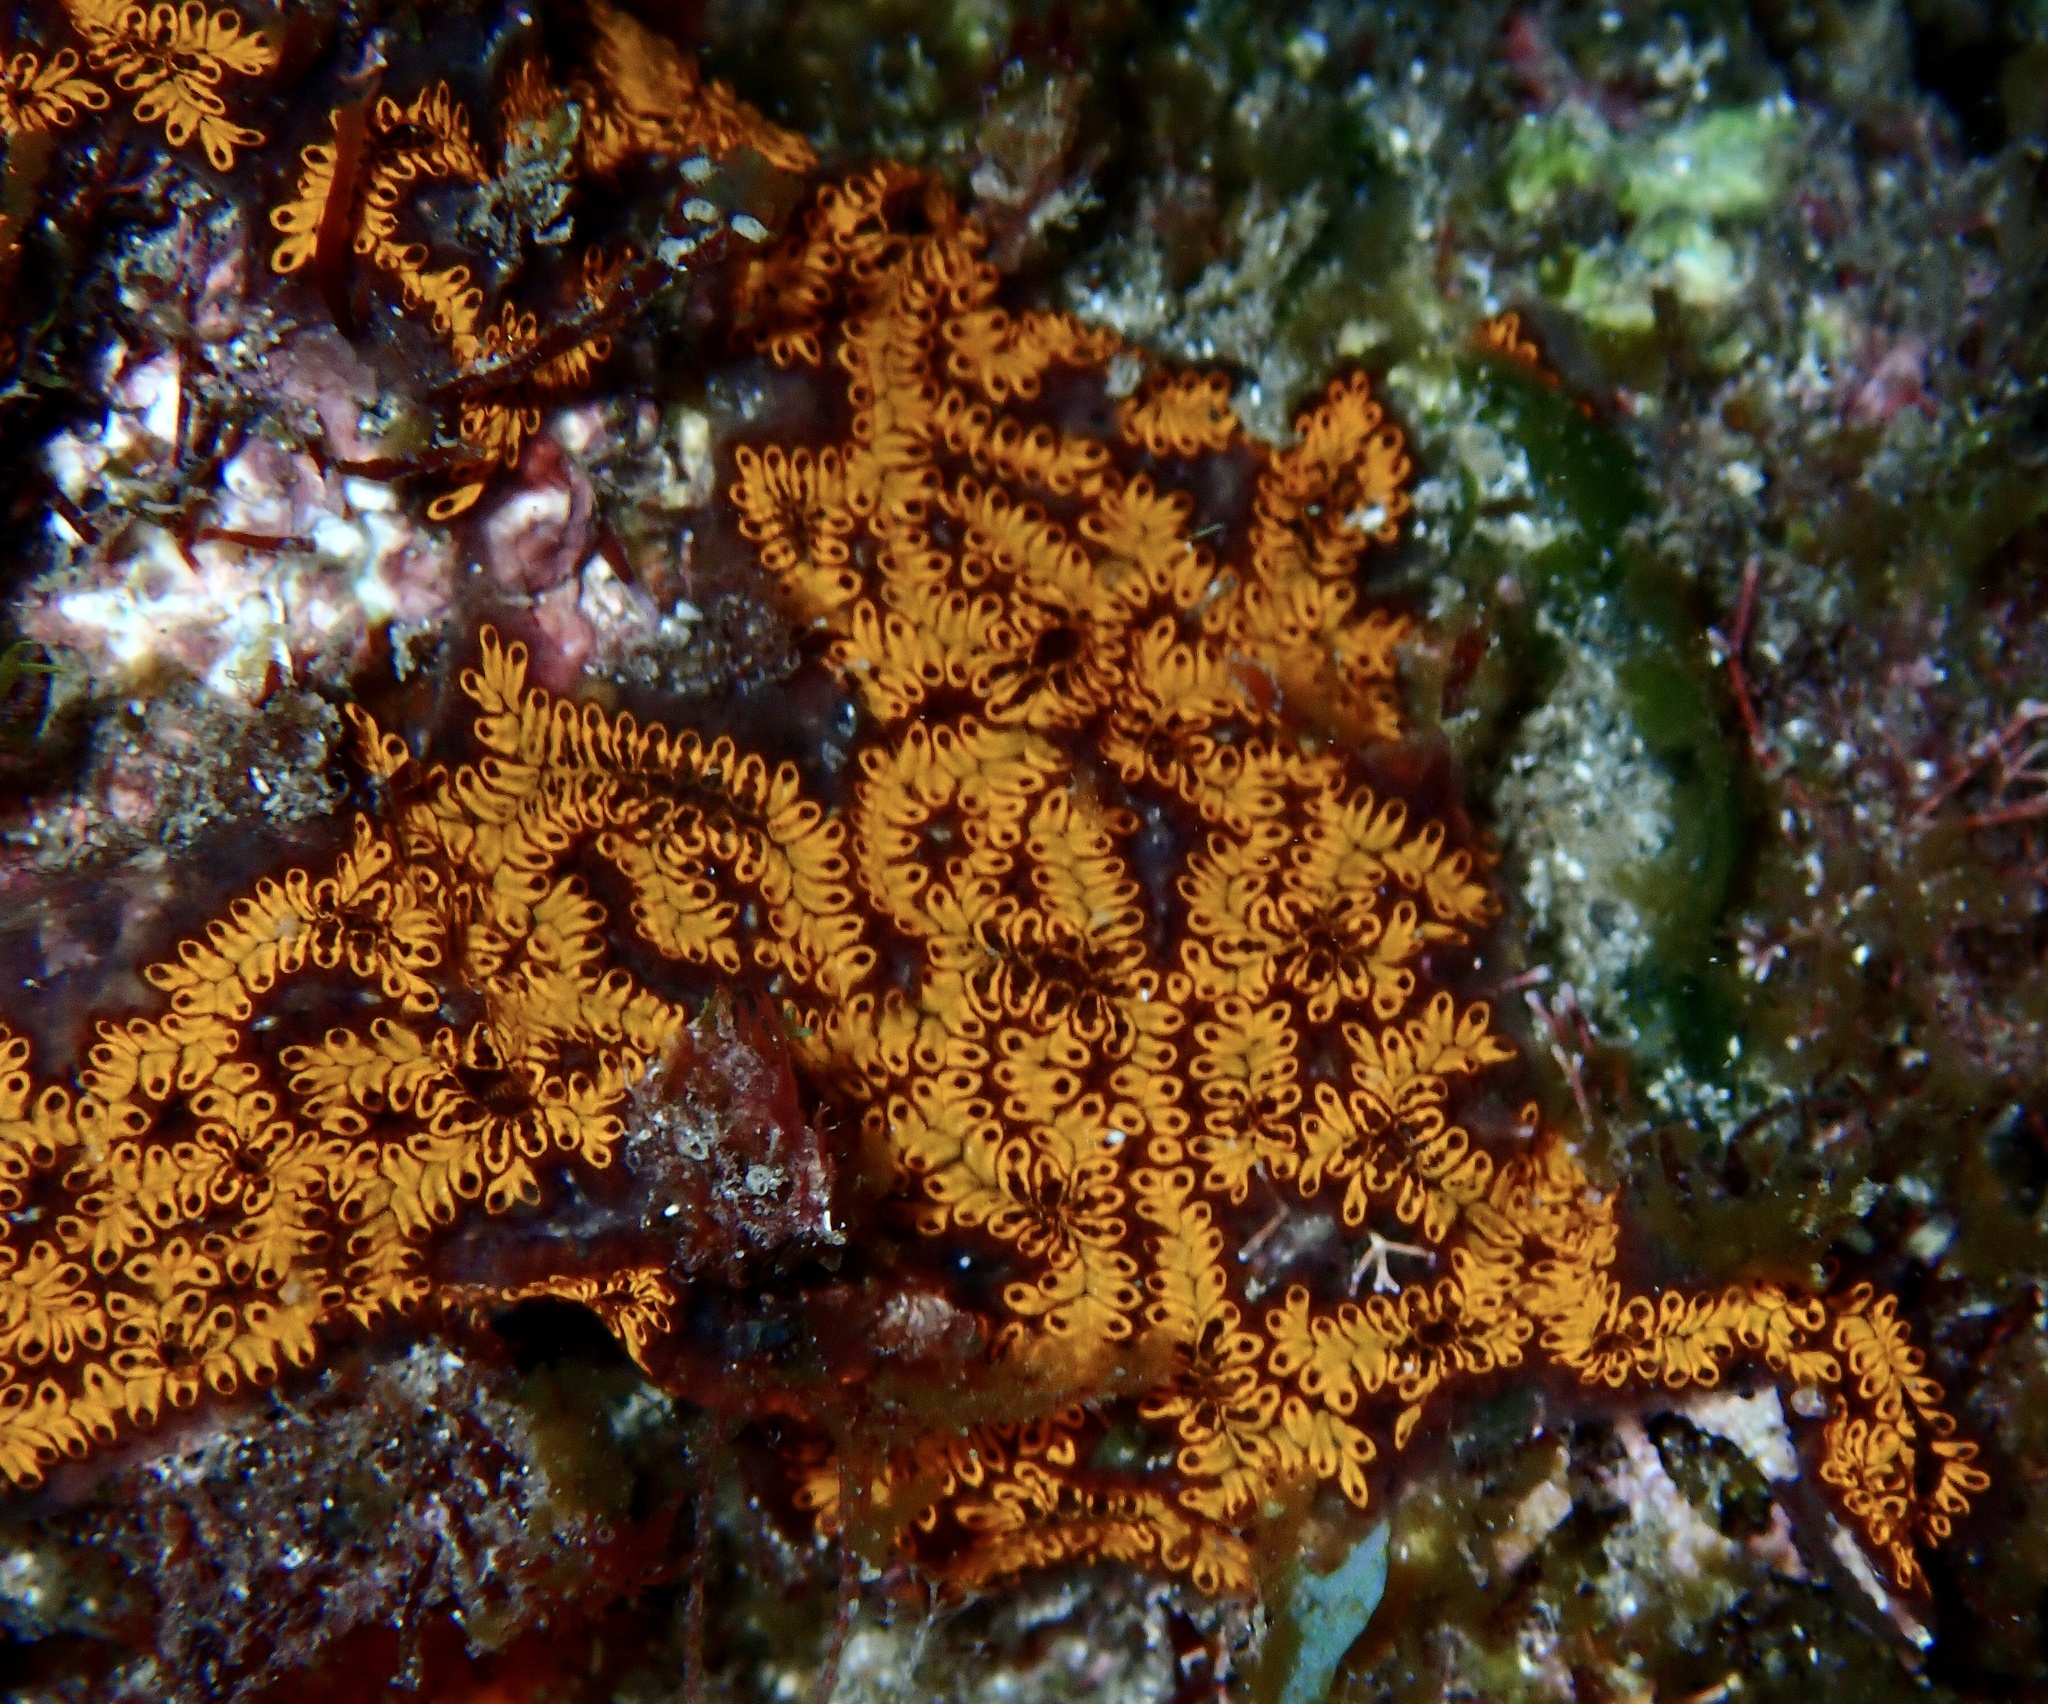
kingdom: Animalia
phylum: Chordata
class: Ascidiacea
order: Stolidobranchia
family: Styelidae
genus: Botrylloides
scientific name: Botrylloides niger
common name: Black synascidia
